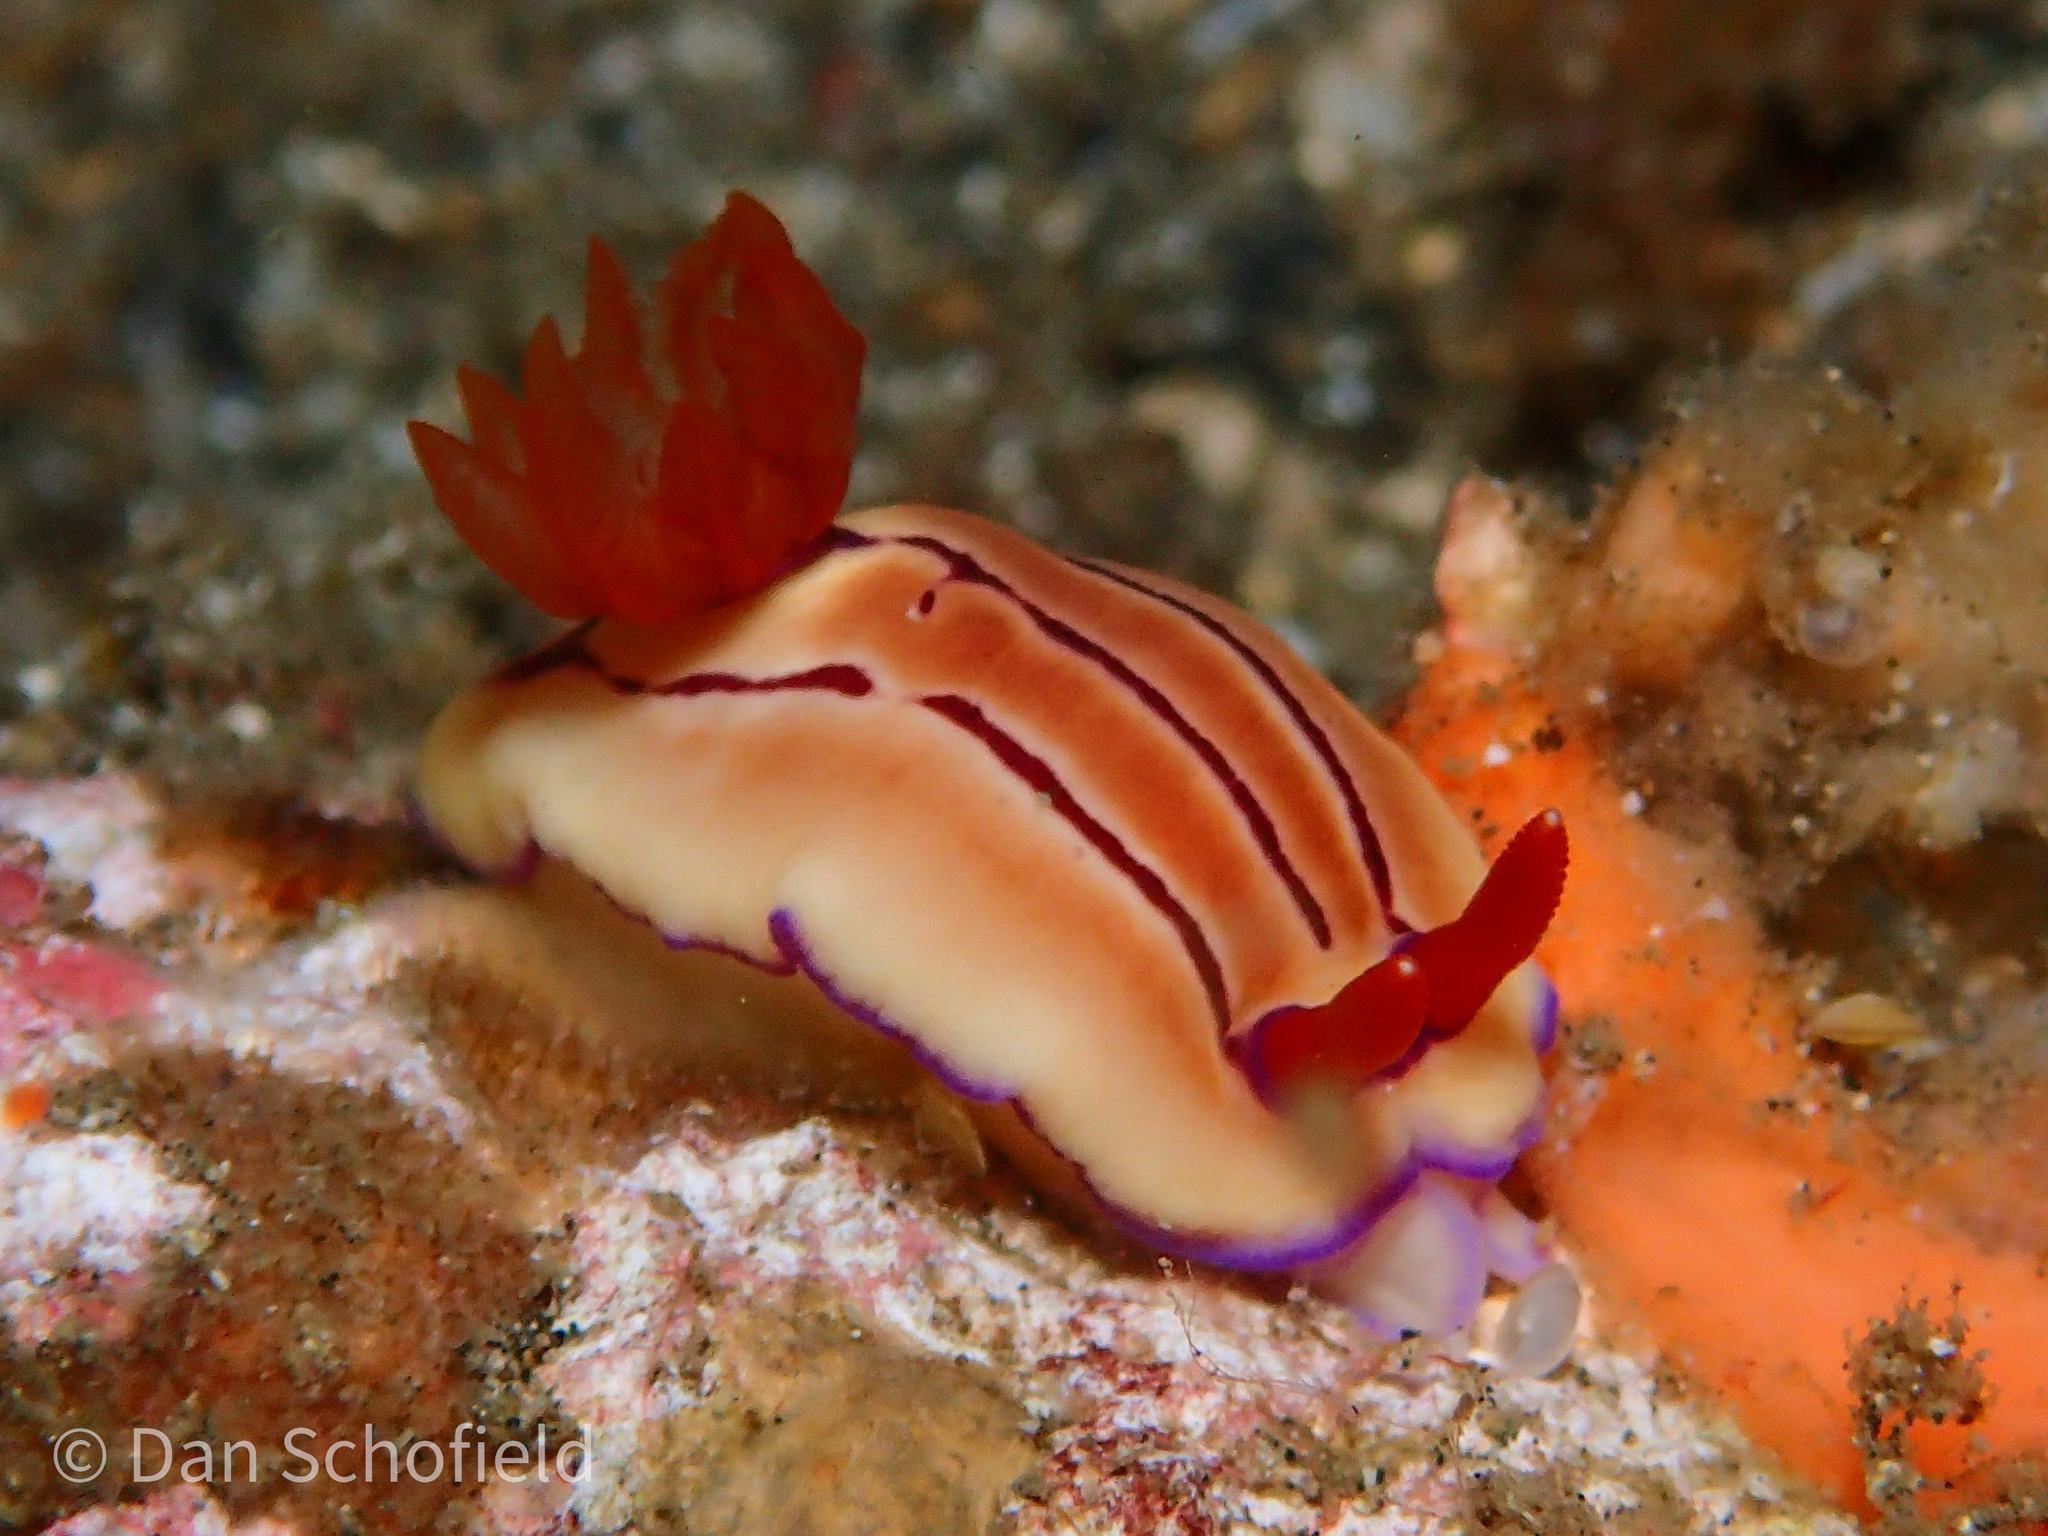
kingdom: Animalia
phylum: Mollusca
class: Gastropoda
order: Nudibranchia
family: Chromodorididae
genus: Hypselodoris
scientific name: Hypselodoris emma
